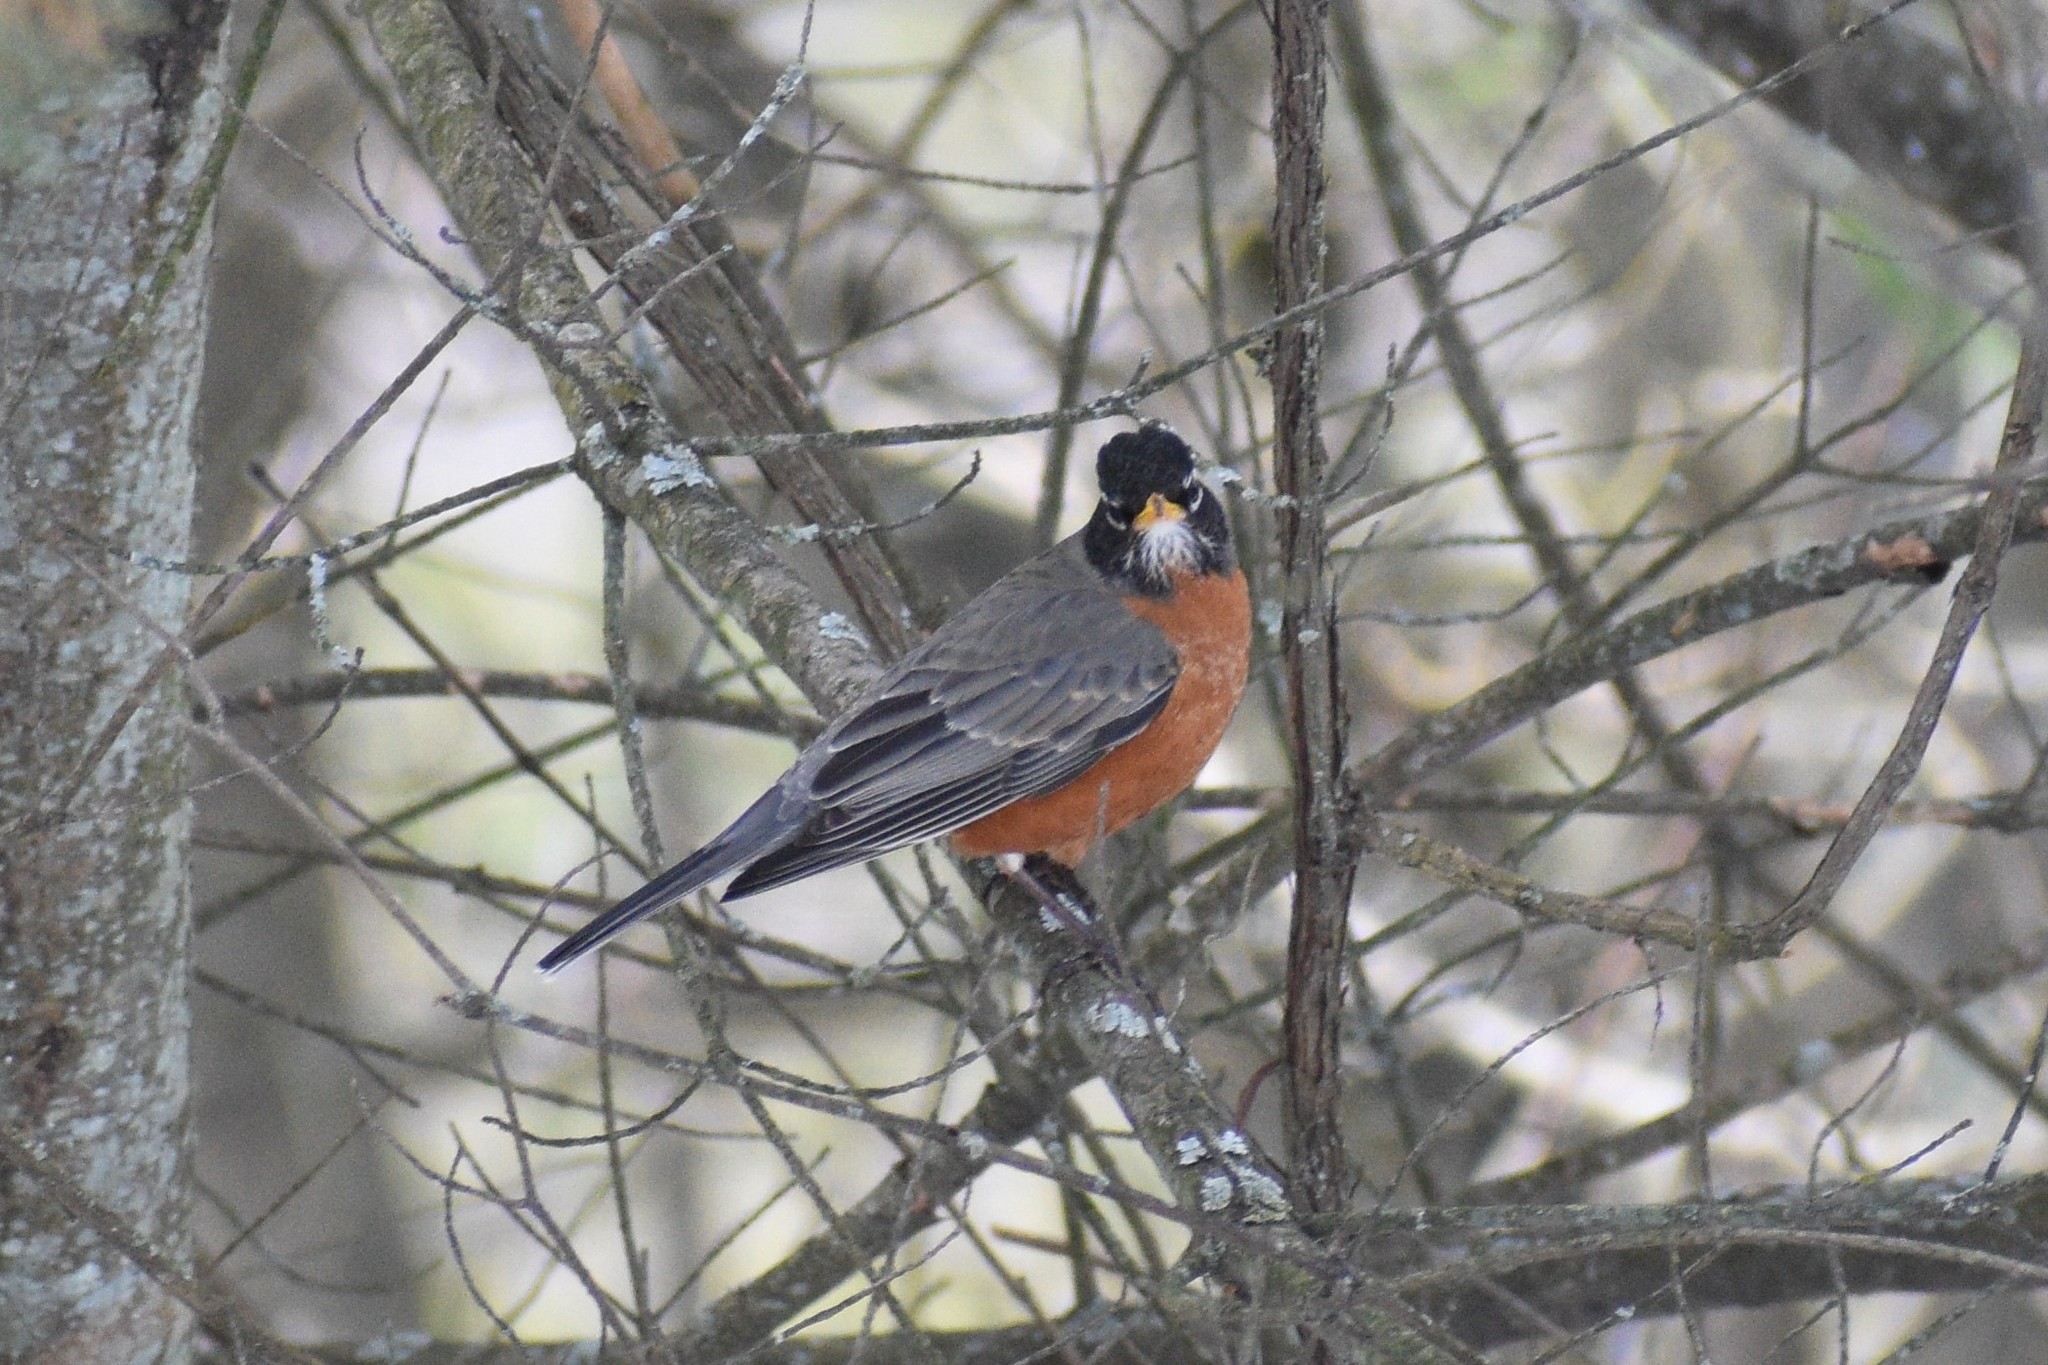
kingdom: Animalia
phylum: Chordata
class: Aves
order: Passeriformes
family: Turdidae
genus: Turdus
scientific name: Turdus migratorius
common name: American robin
